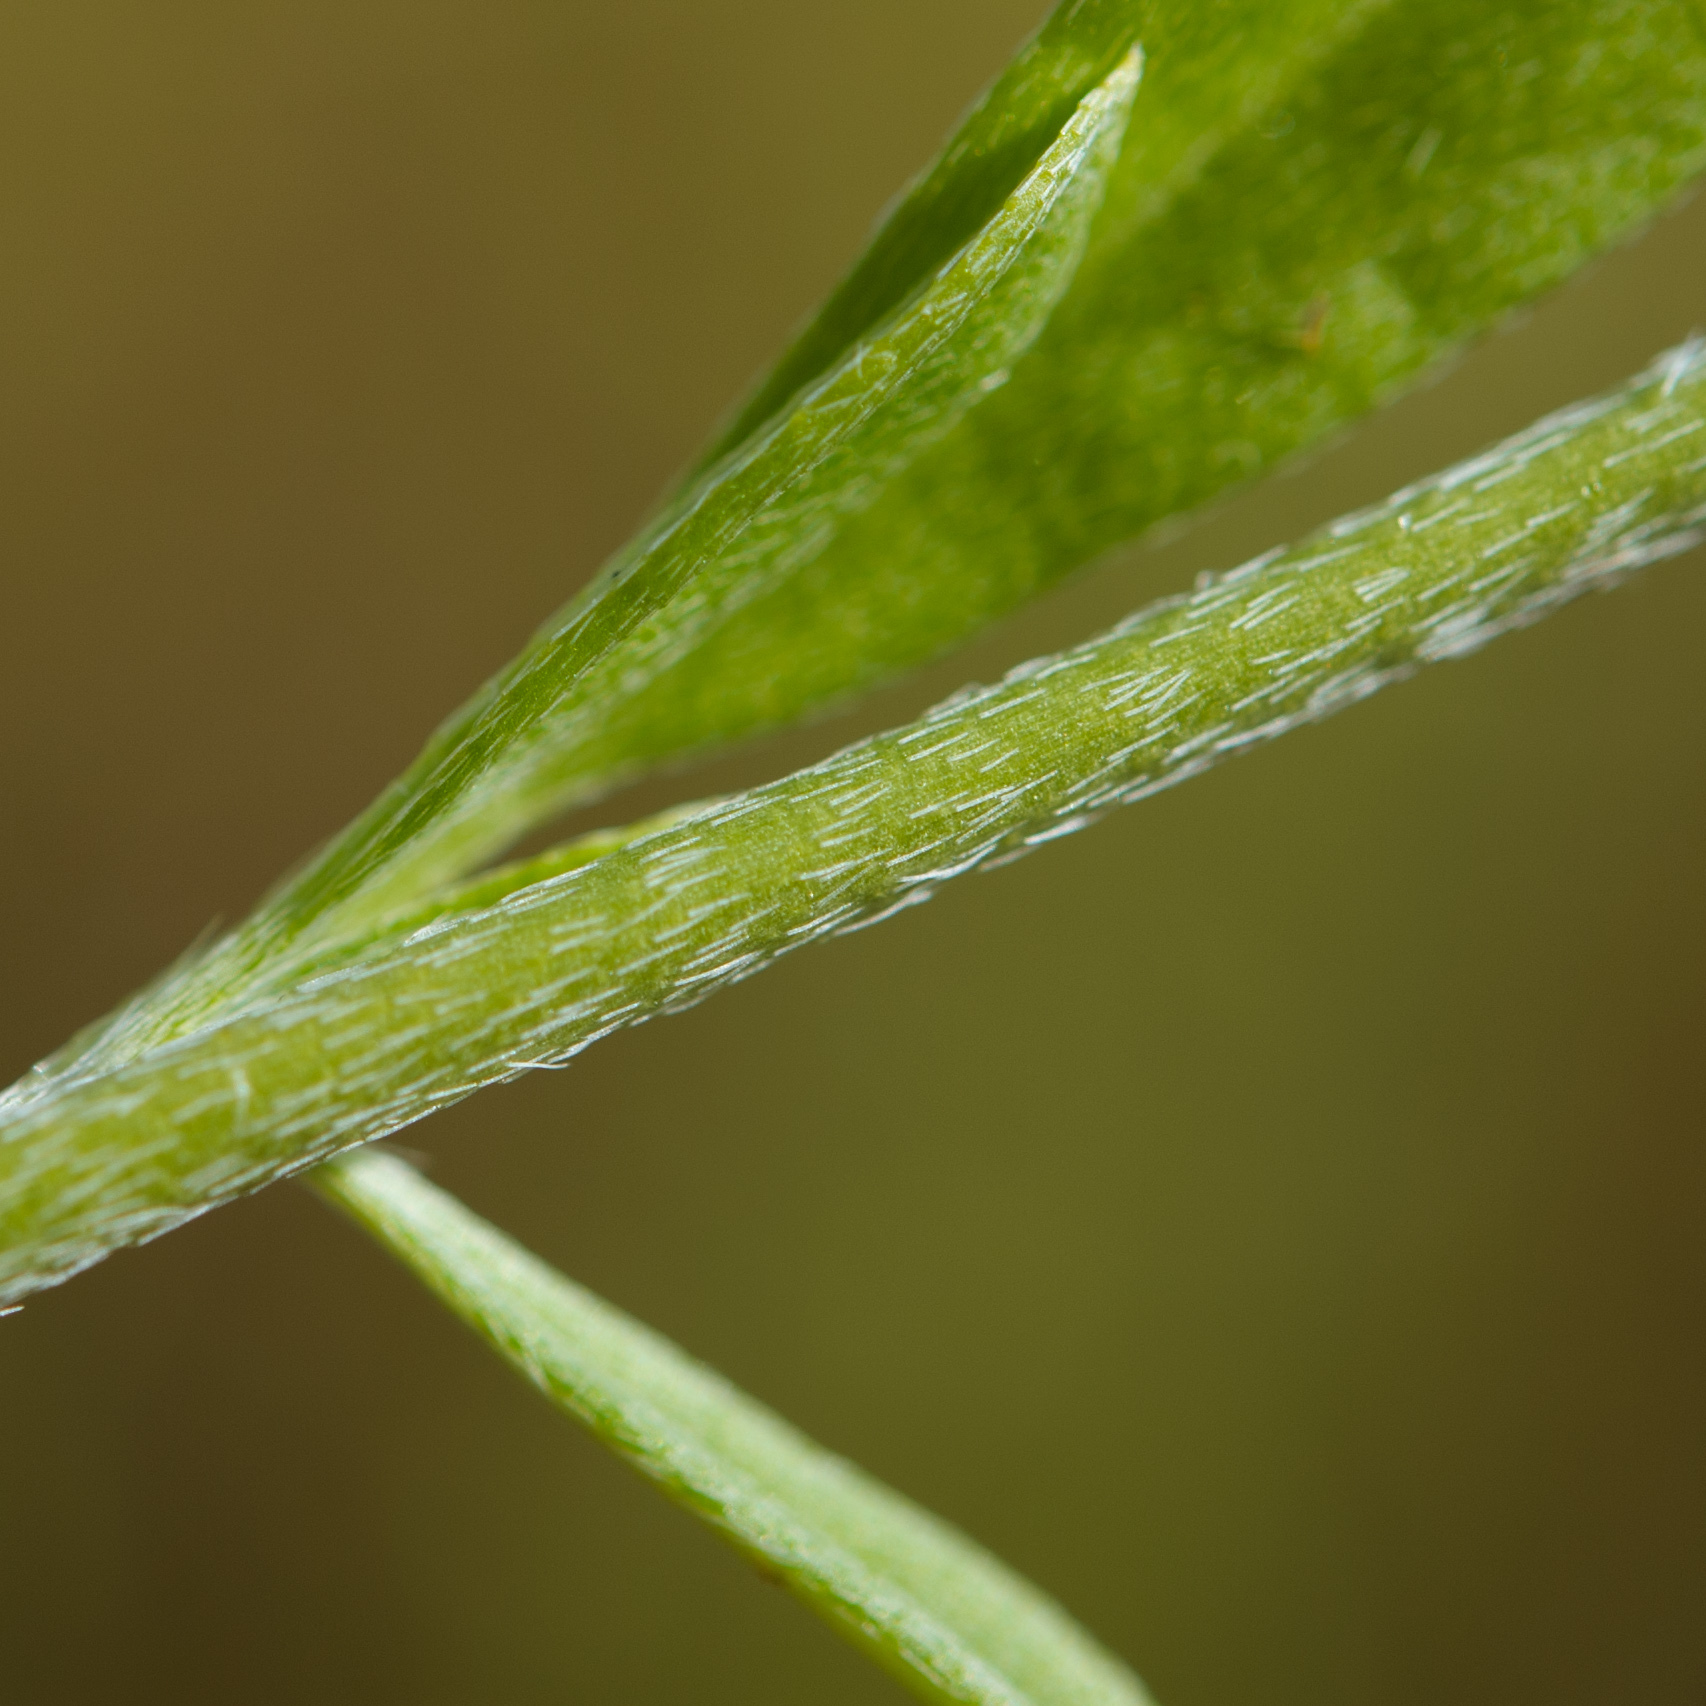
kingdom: Plantae
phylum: Tracheophyta
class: Magnoliopsida
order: Boraginales
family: Heliotropiaceae
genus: Euploca
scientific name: Euploca procumbens
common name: Fourspike heliotrope
